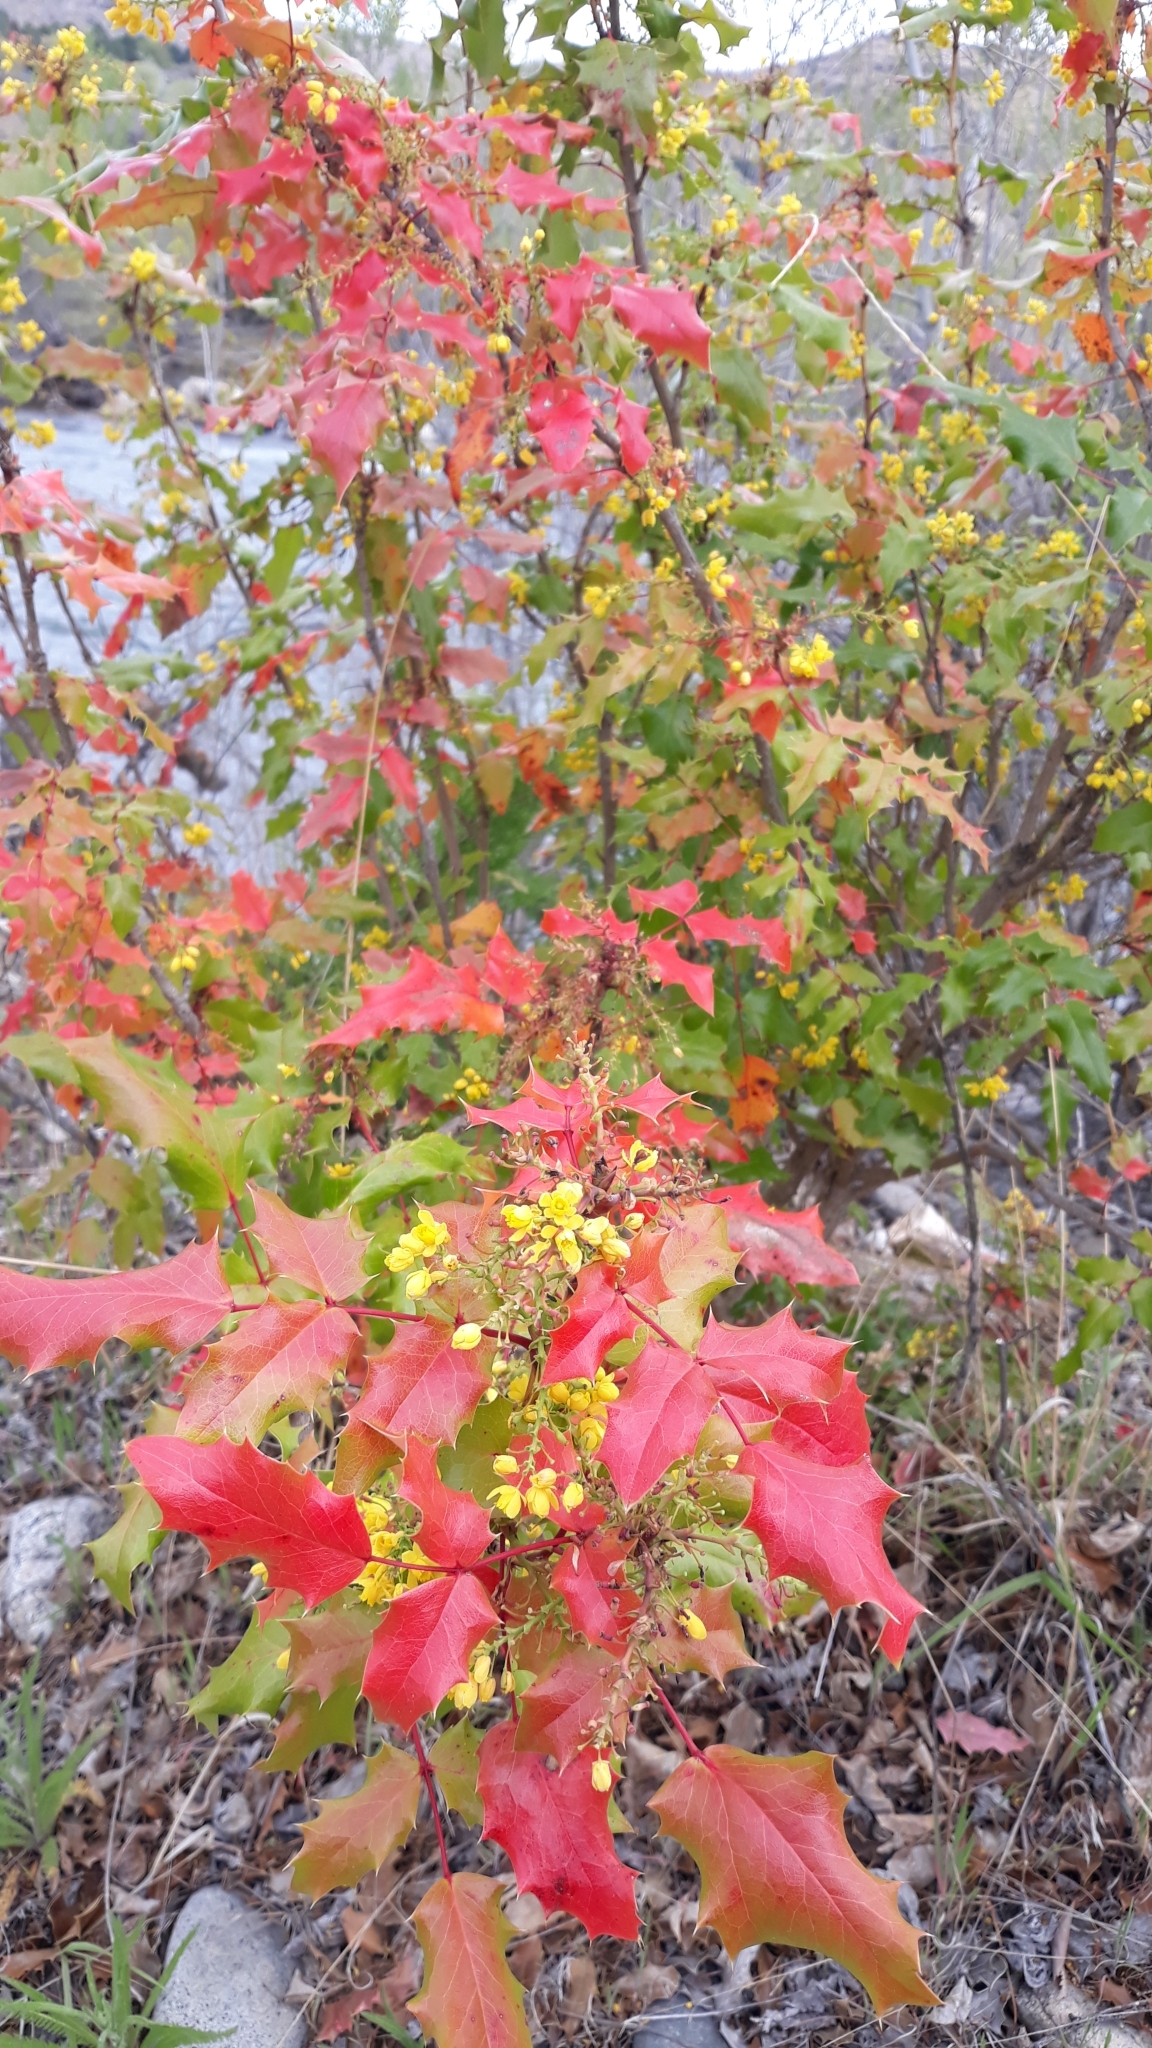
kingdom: Plantae
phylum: Tracheophyta
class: Magnoliopsida
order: Ranunculales
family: Berberidaceae
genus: Mahonia
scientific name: Mahonia aquifolium
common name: Oregon-grape
